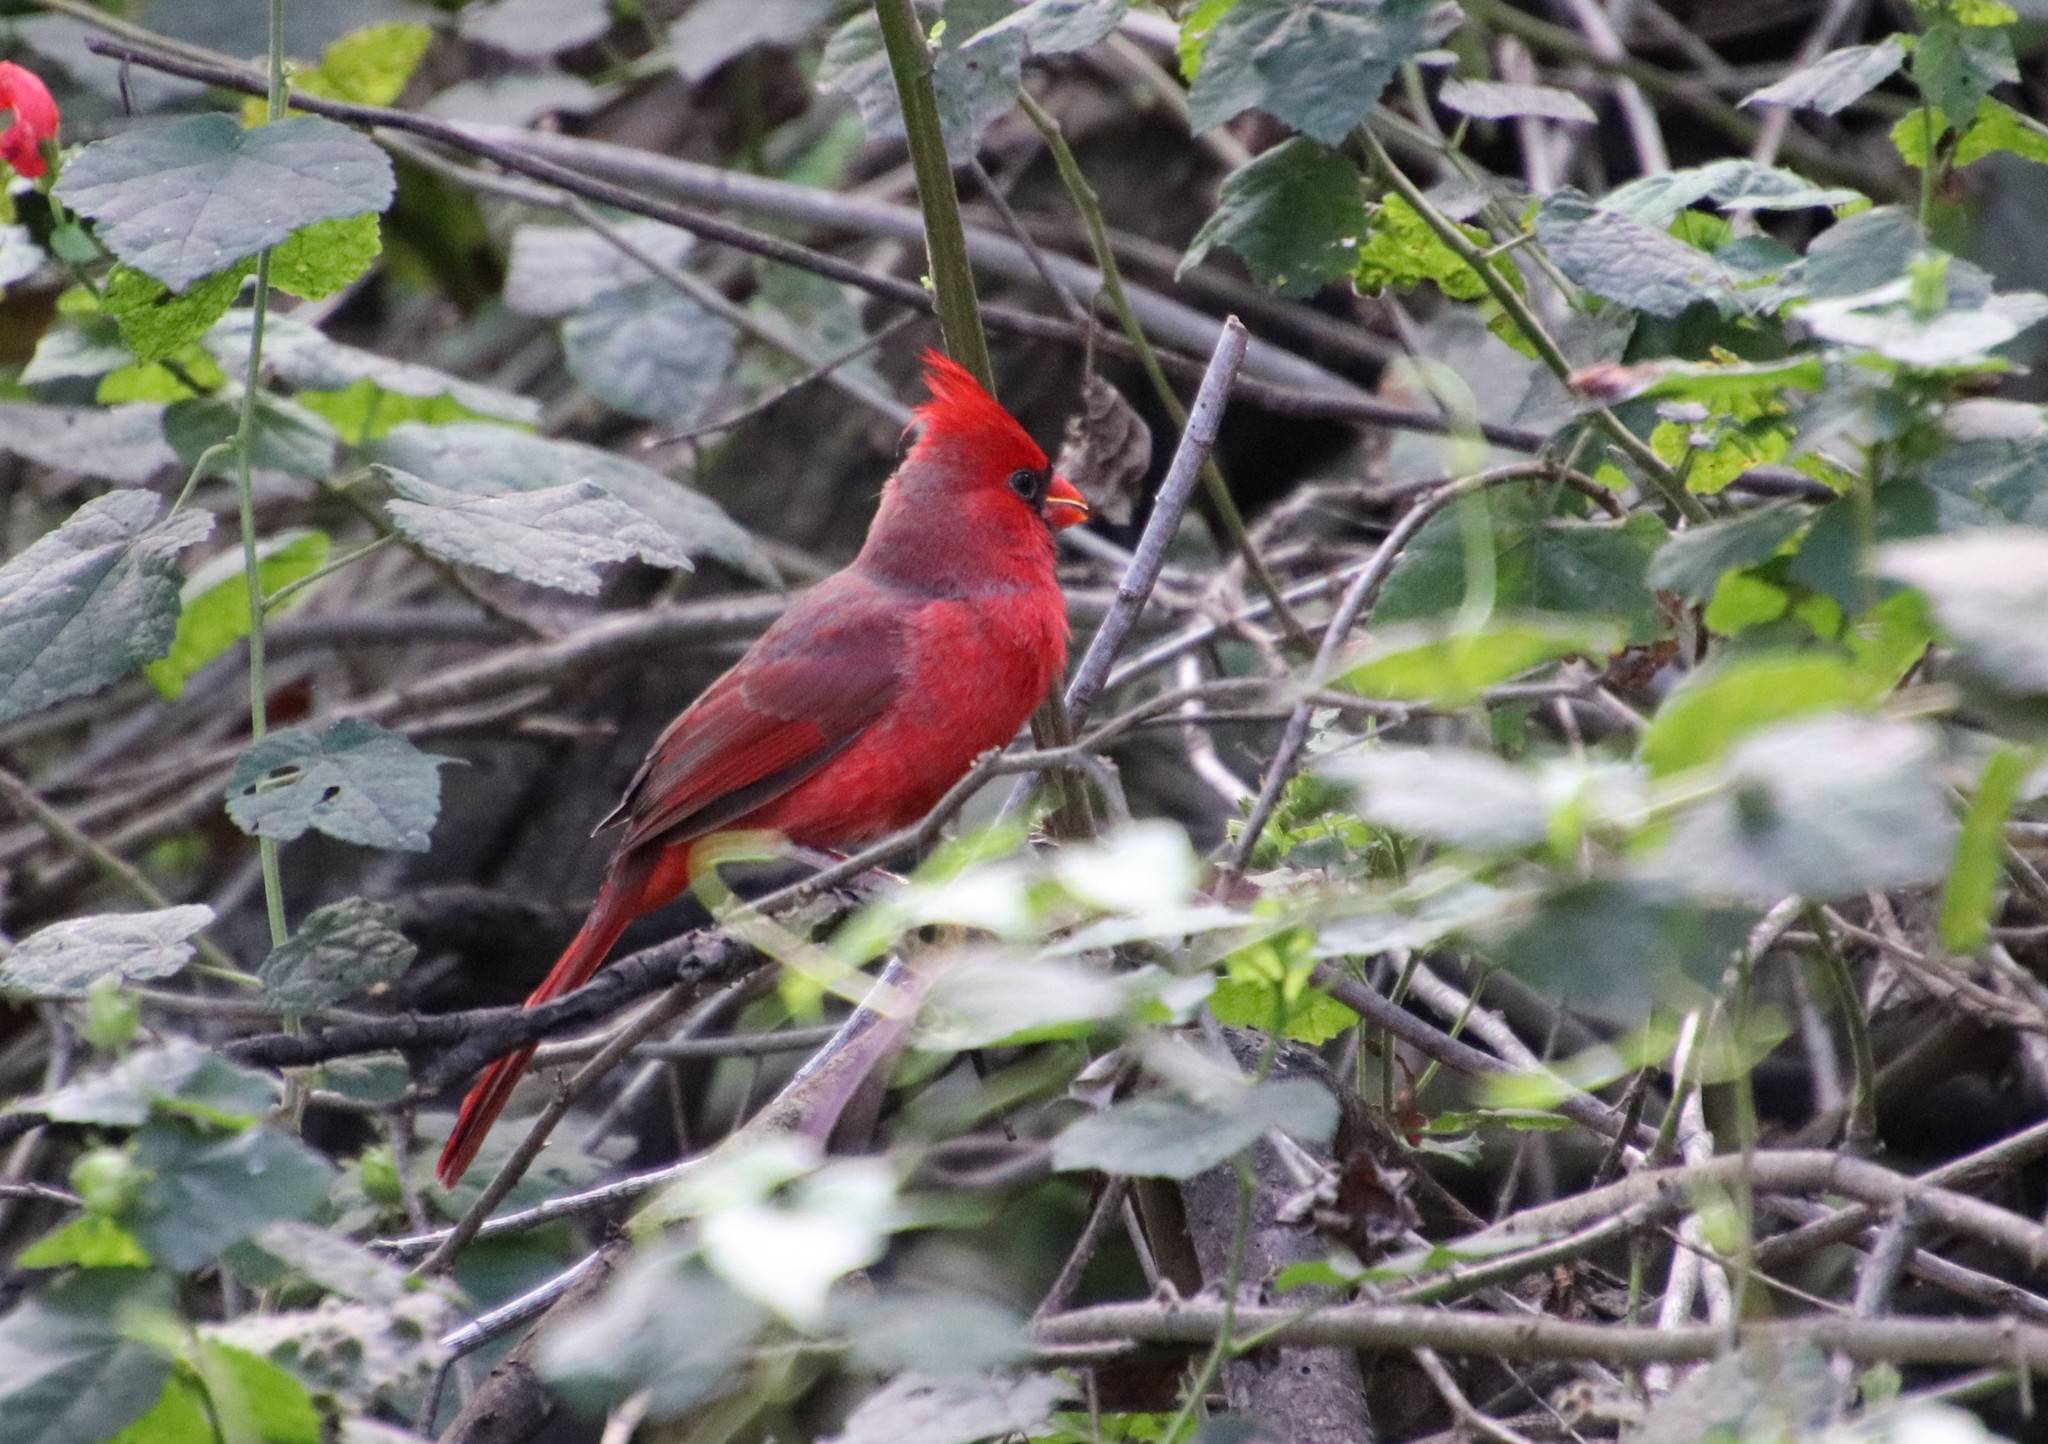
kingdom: Animalia
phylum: Chordata
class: Aves
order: Passeriformes
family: Cardinalidae
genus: Cardinalis
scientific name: Cardinalis cardinalis
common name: Northern cardinal
